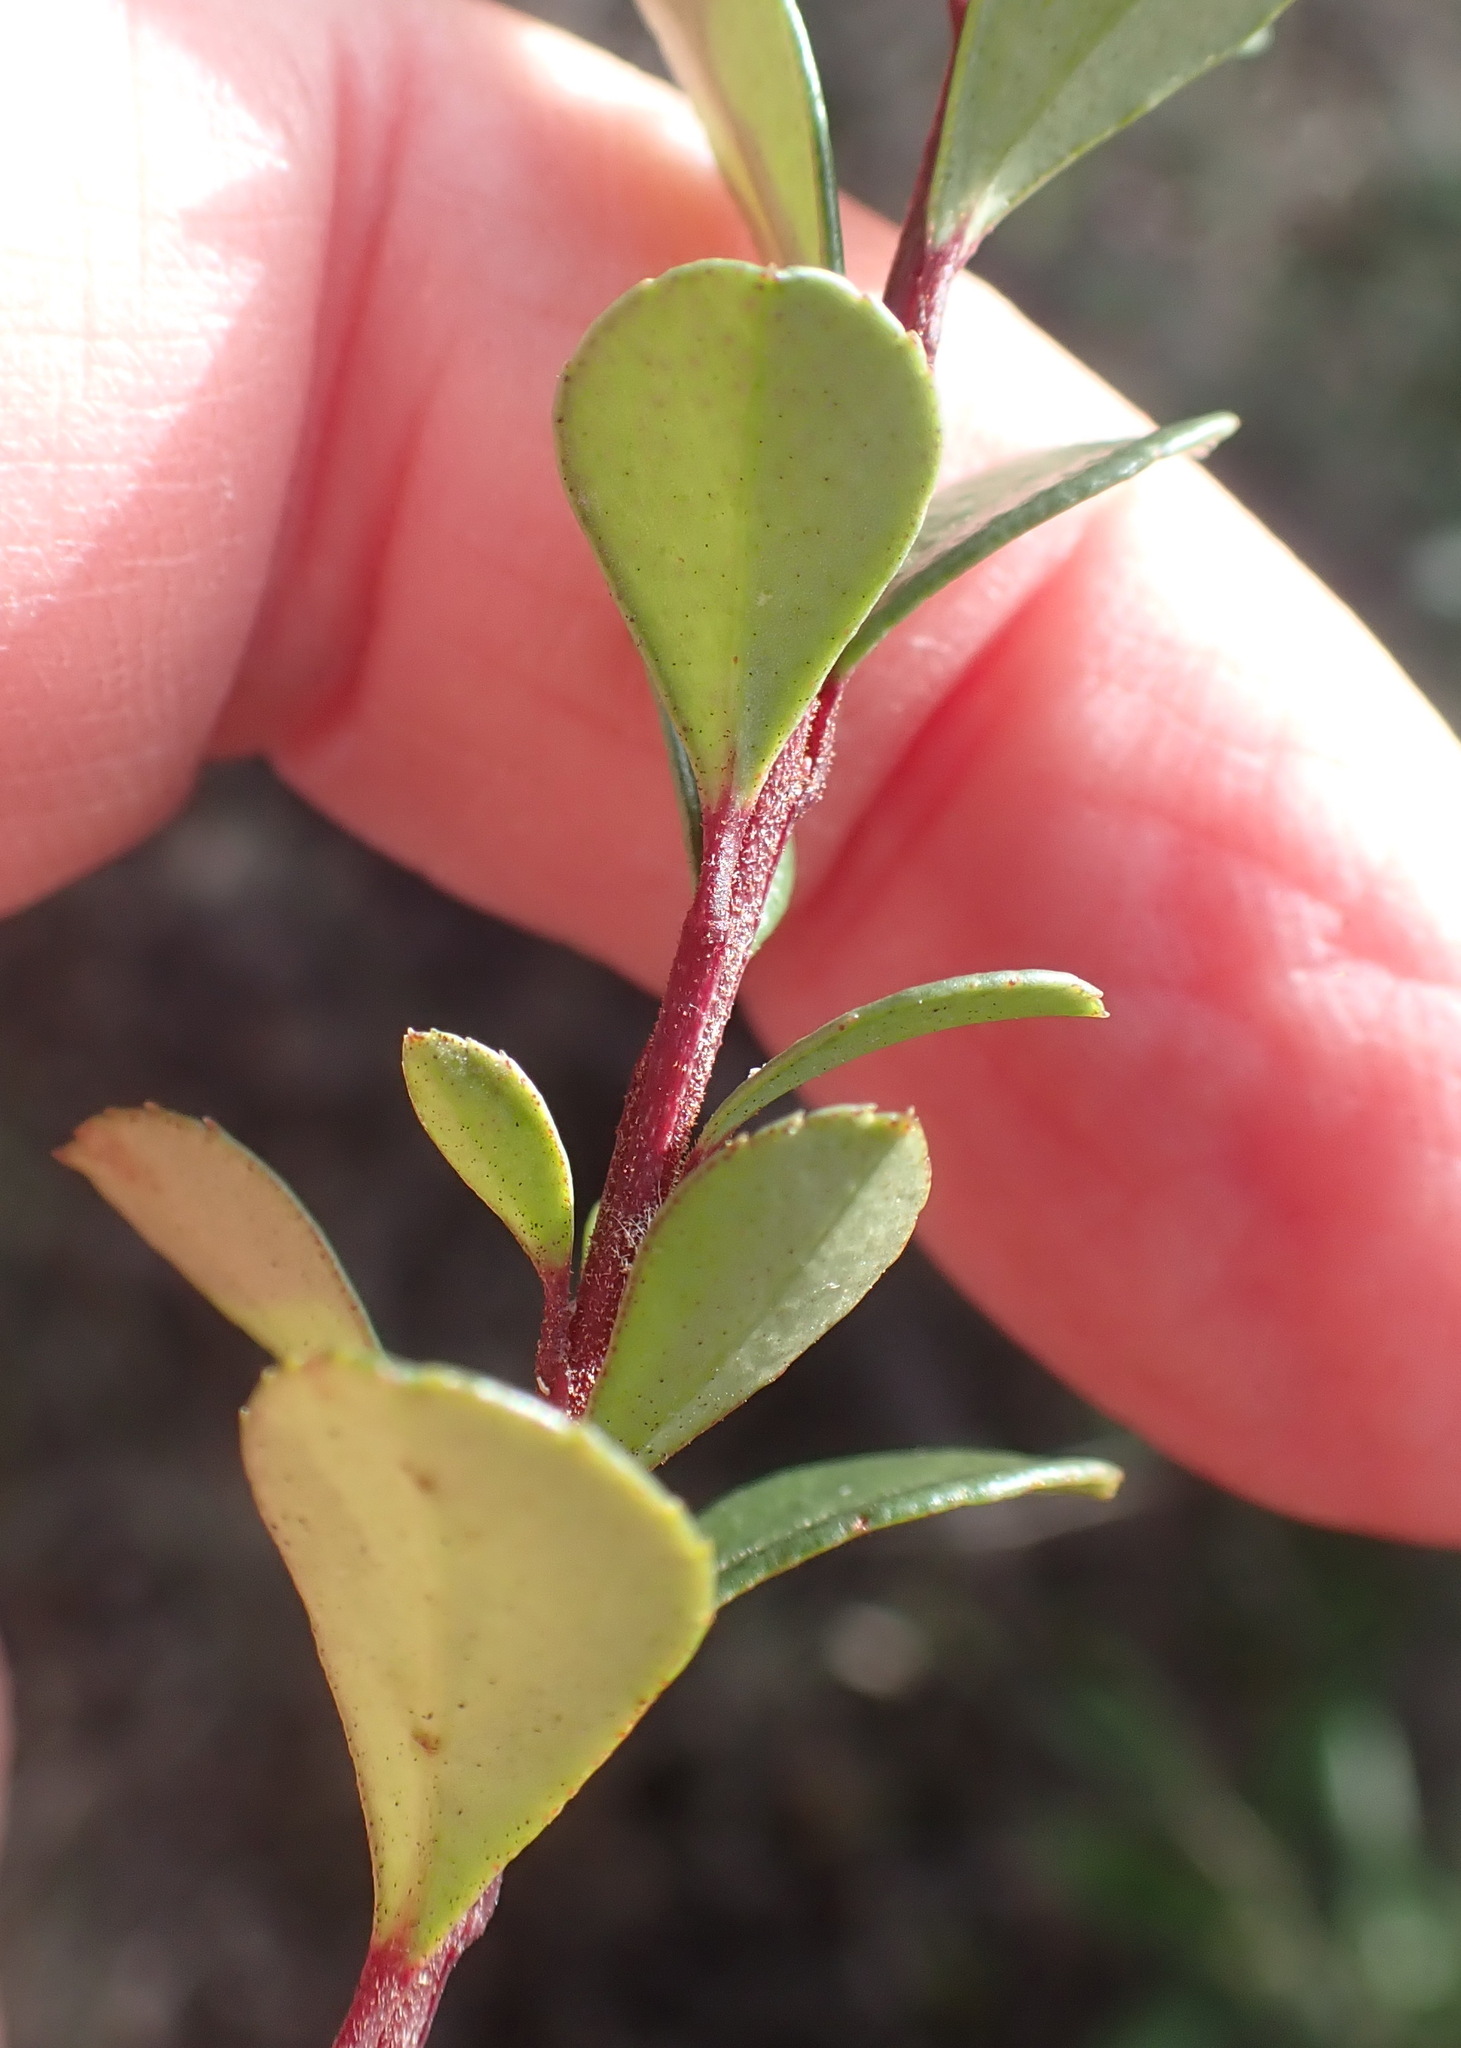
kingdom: Plantae
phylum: Tracheophyta
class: Magnoliopsida
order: Ericales
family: Primulaceae
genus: Myrsine
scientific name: Myrsine africana
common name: African-boxwood
